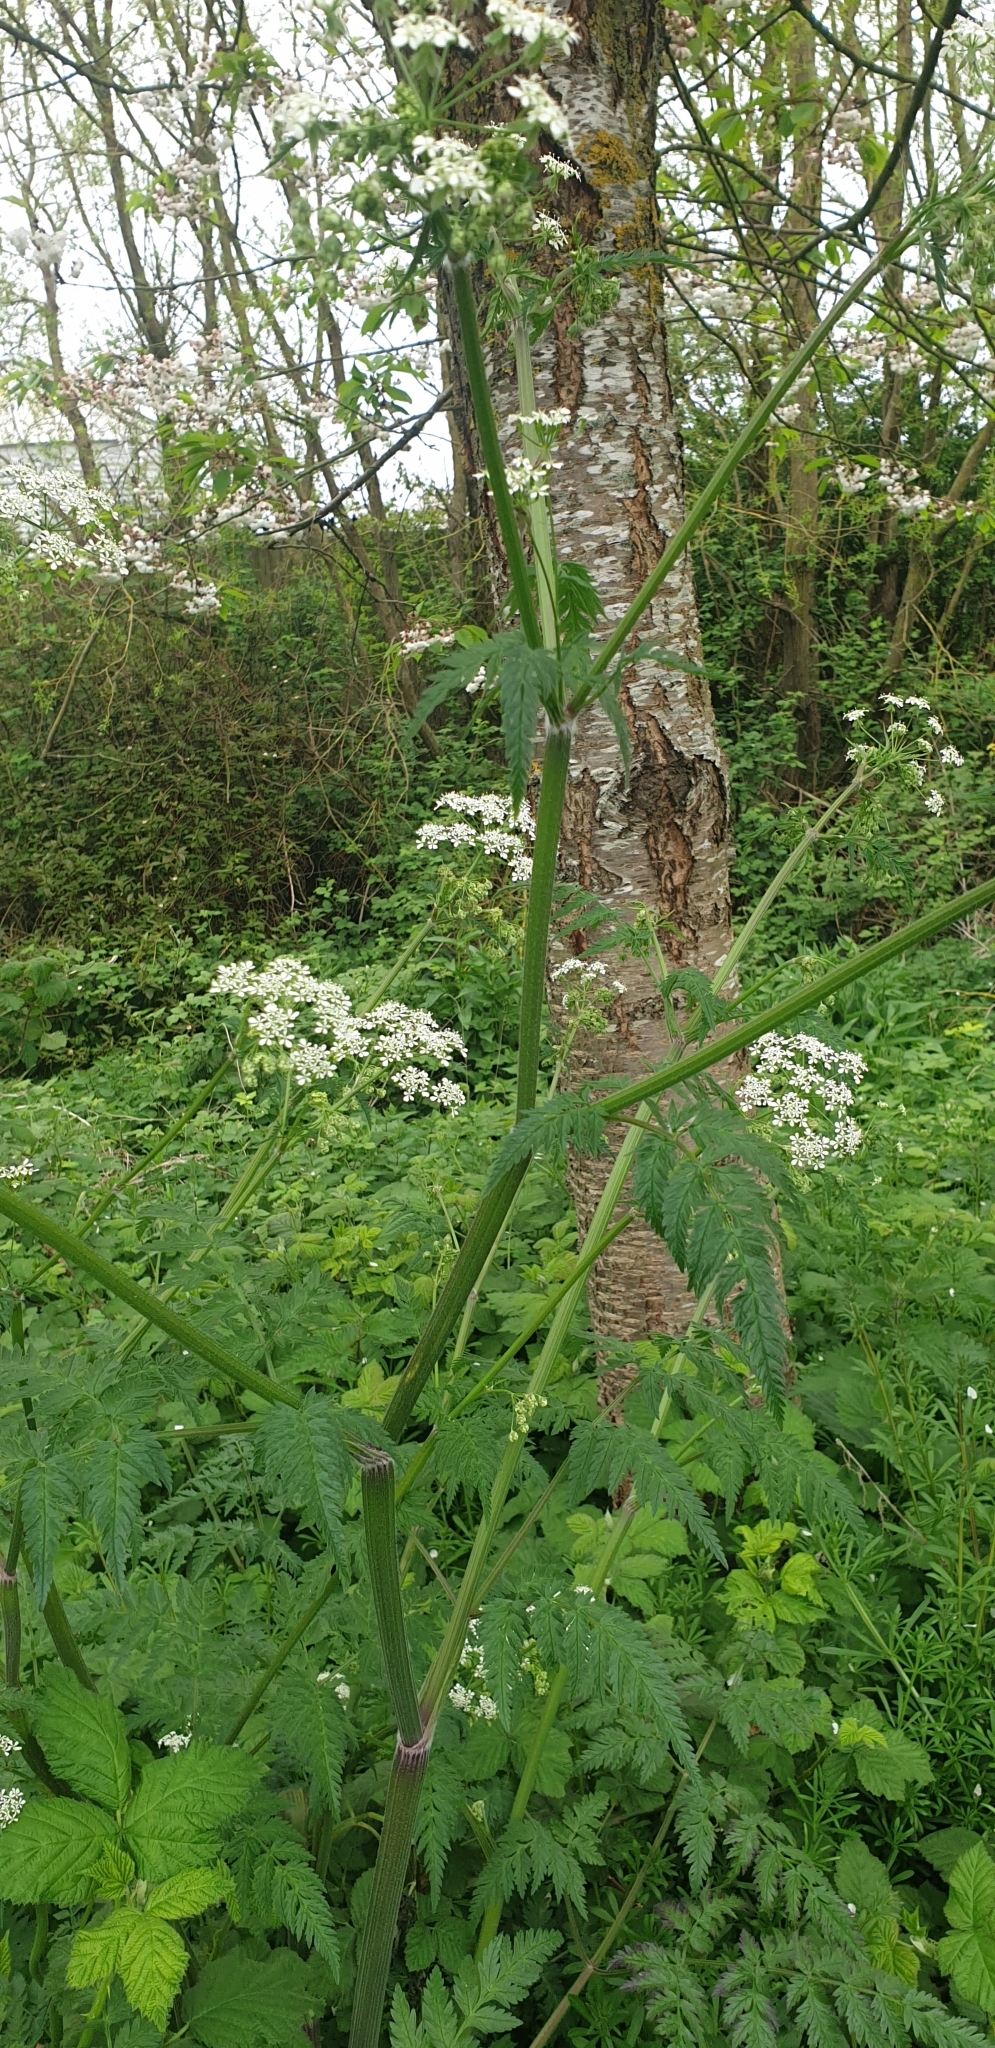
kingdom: Plantae
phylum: Tracheophyta
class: Magnoliopsida
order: Apiales
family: Apiaceae
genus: Anthriscus
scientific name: Anthriscus sylvestris
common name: Cow parsley
